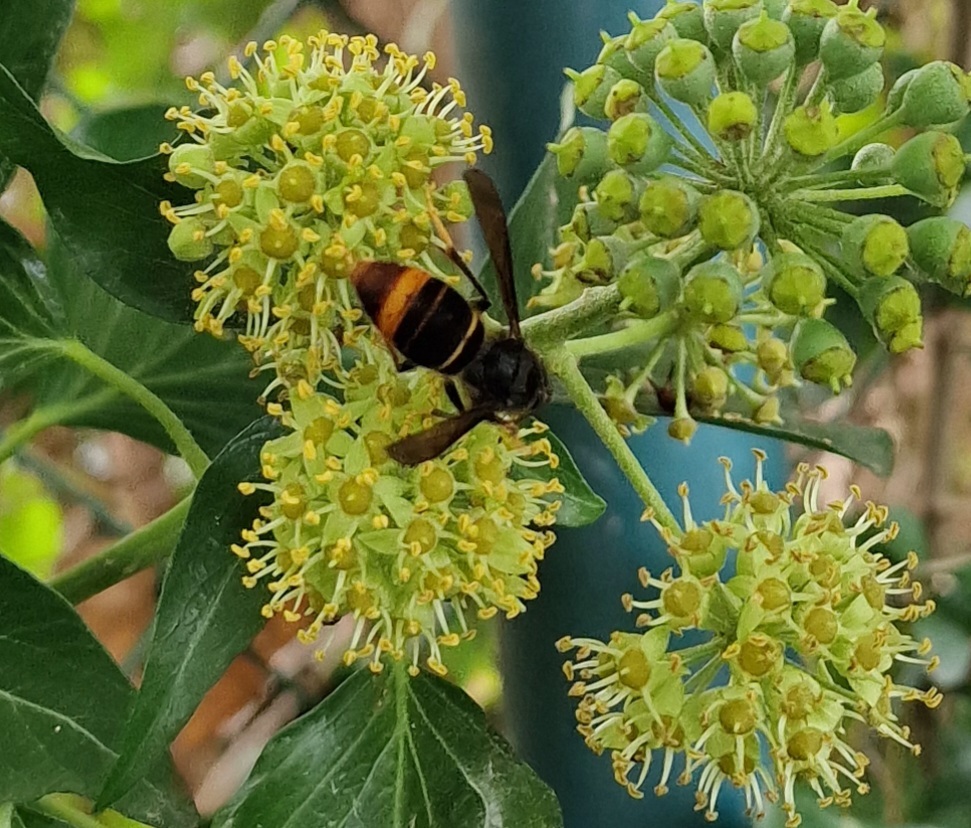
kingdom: Animalia
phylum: Arthropoda
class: Insecta
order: Hymenoptera
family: Vespidae
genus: Vespa
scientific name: Vespa velutina
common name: Asian hornet
